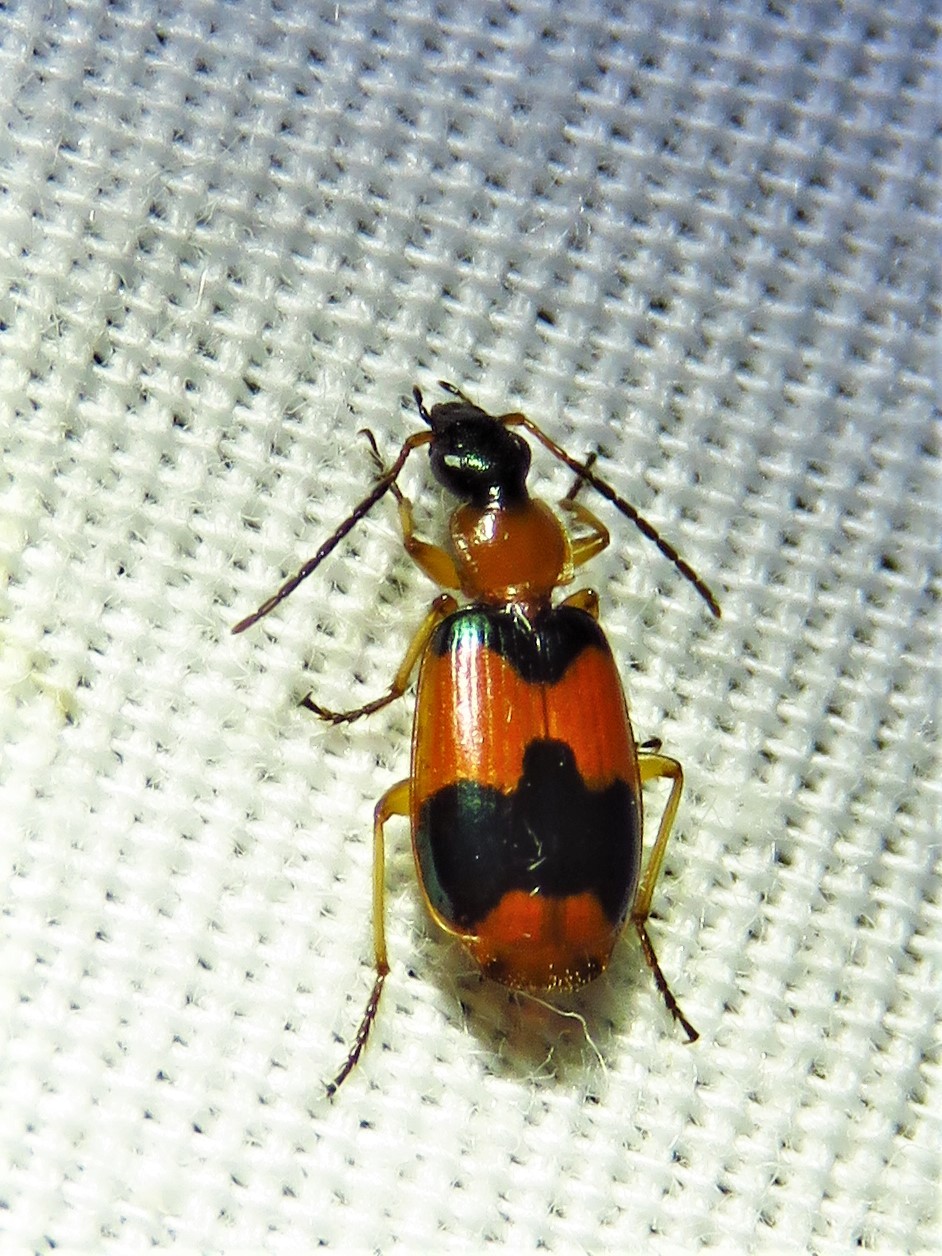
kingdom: Animalia
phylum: Arthropoda
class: Insecta
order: Coleoptera
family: Carabidae
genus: Lebia
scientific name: Lebia pulchella
